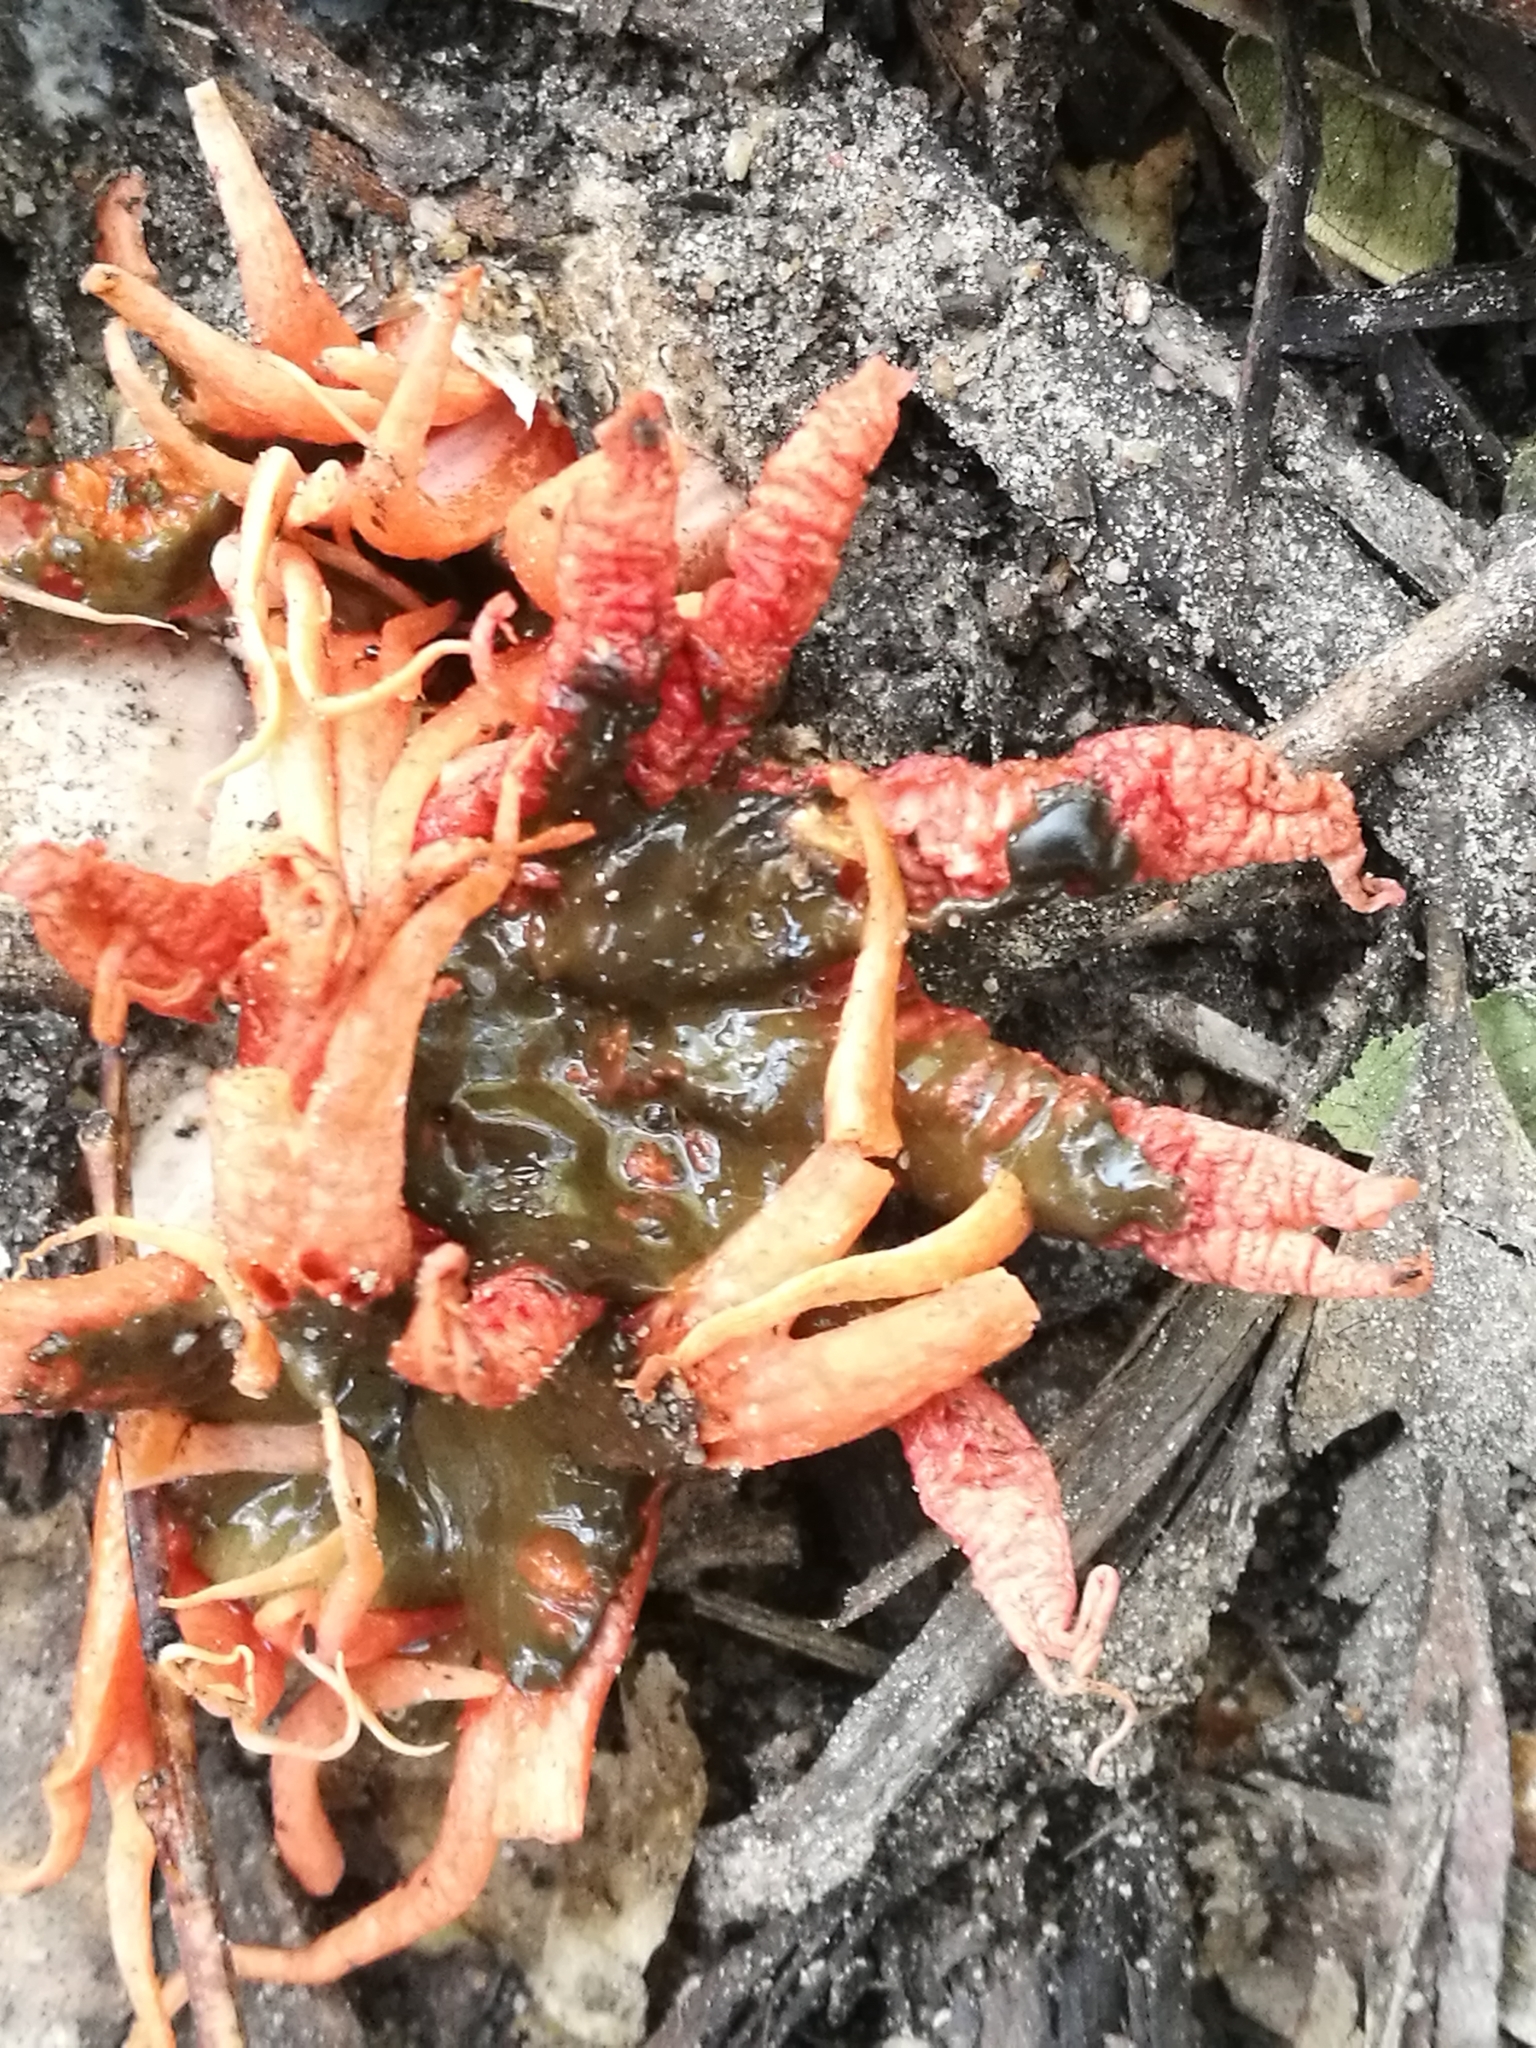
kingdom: Fungi
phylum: Basidiomycota
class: Agaricomycetes
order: Phallales
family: Phallaceae
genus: Aseroe
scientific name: Aseroe rubra
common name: Starfish fungus
